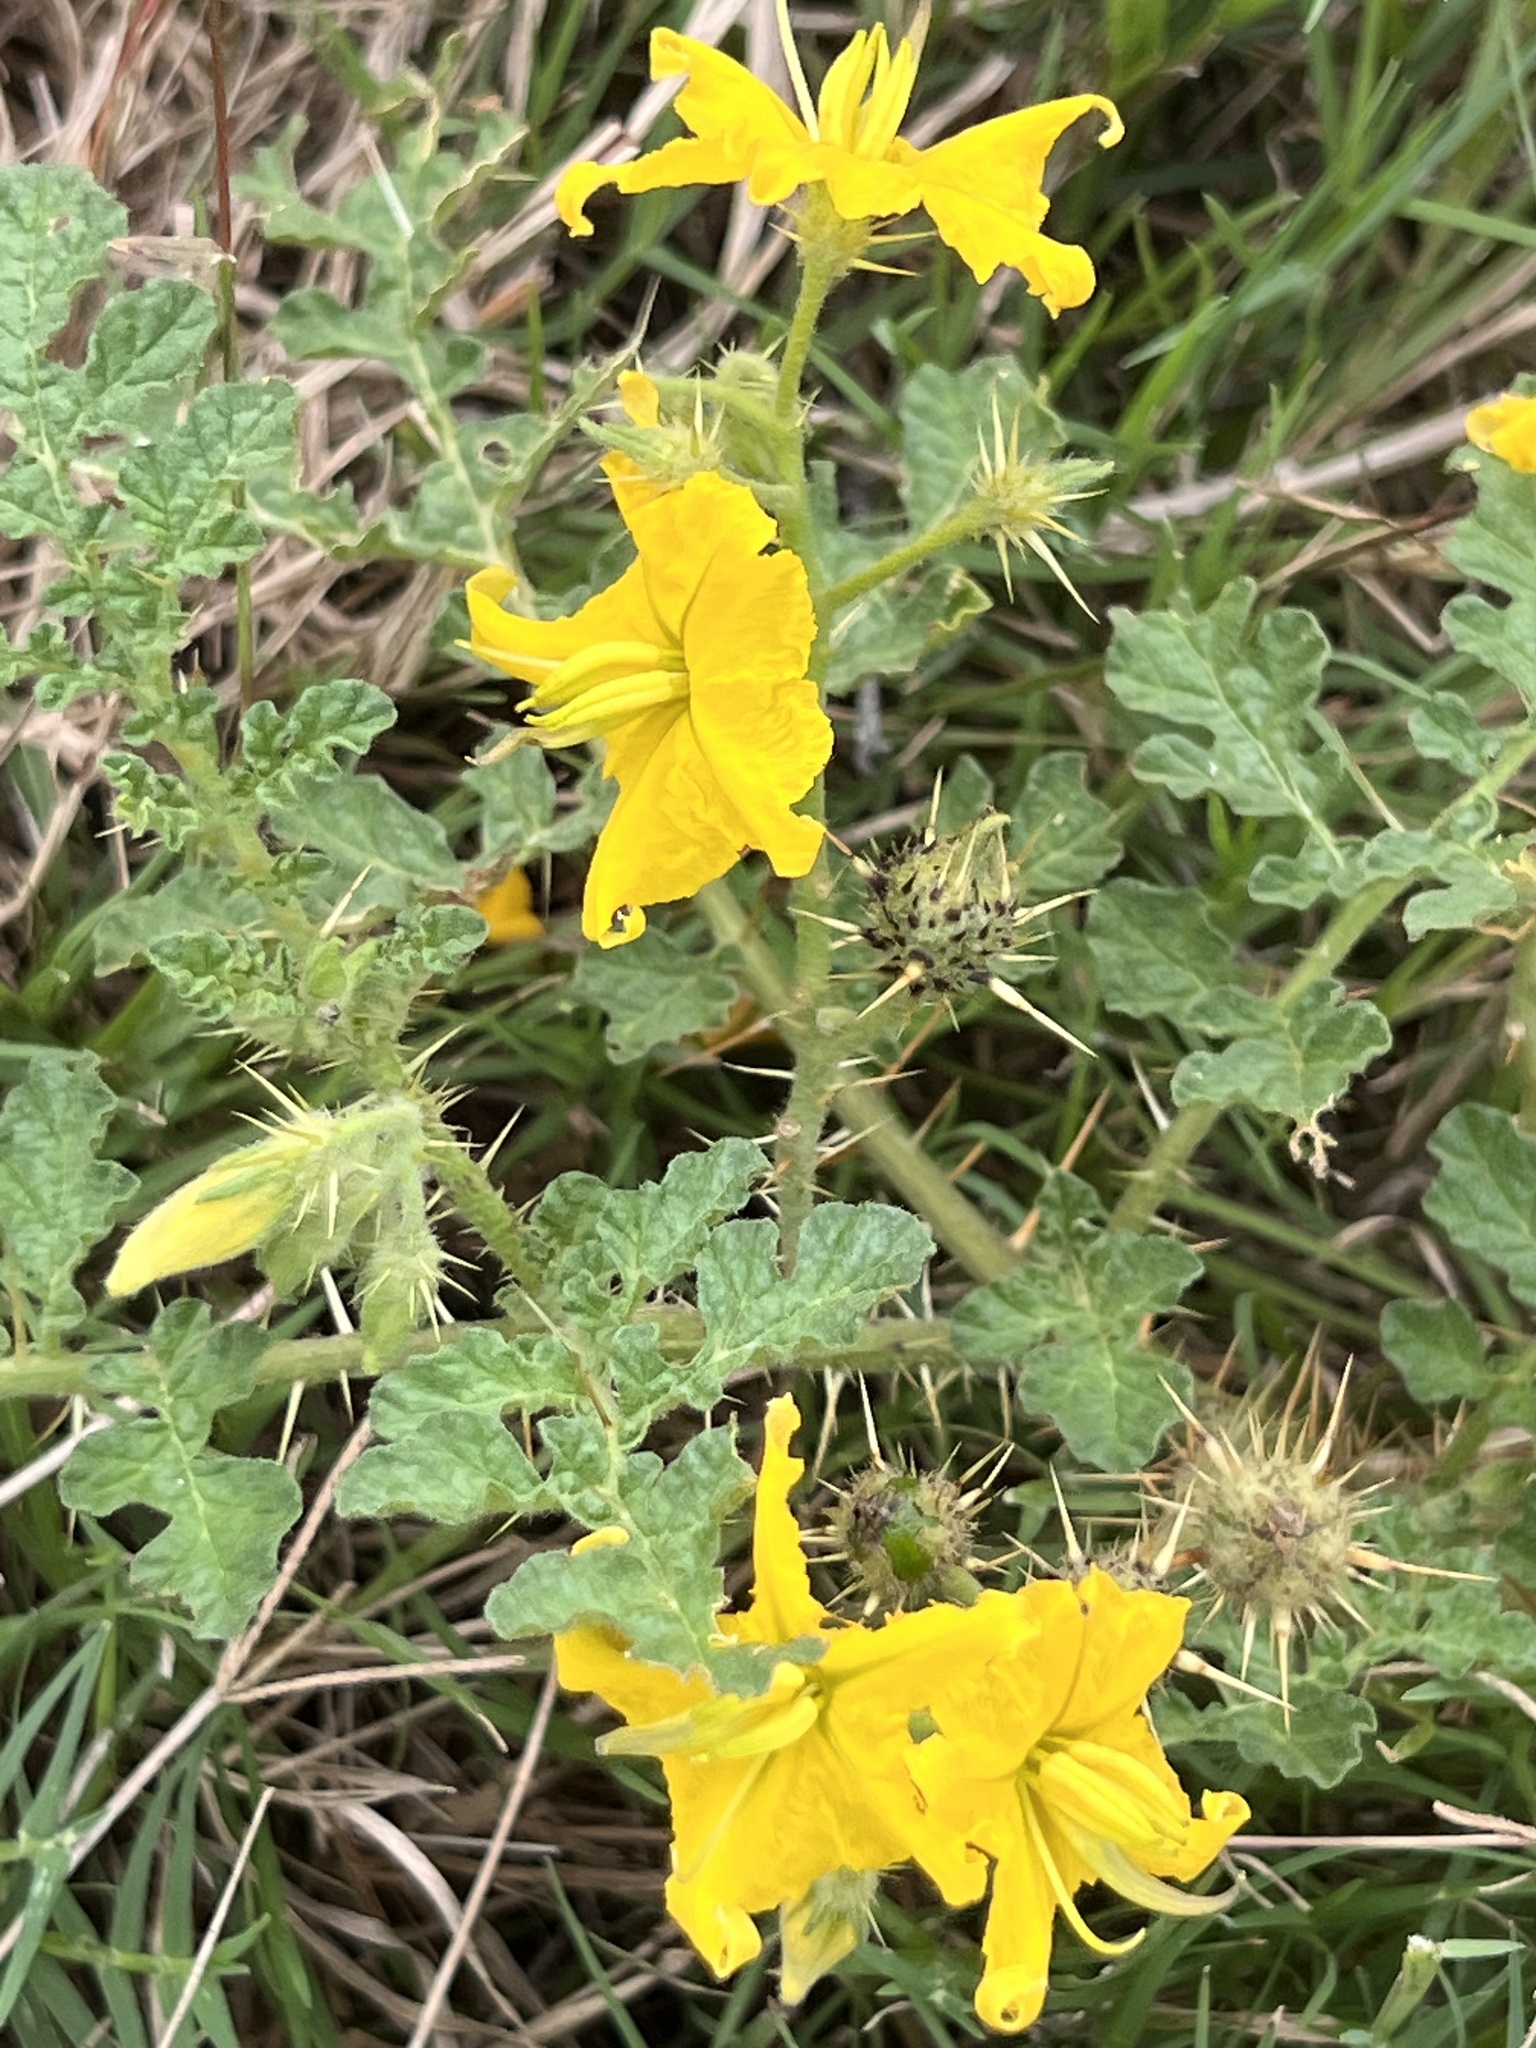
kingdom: Plantae
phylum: Tracheophyta
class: Magnoliopsida
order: Solanales
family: Solanaceae
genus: Solanum
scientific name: Solanum angustifolium
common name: Buffalobur nightshade
